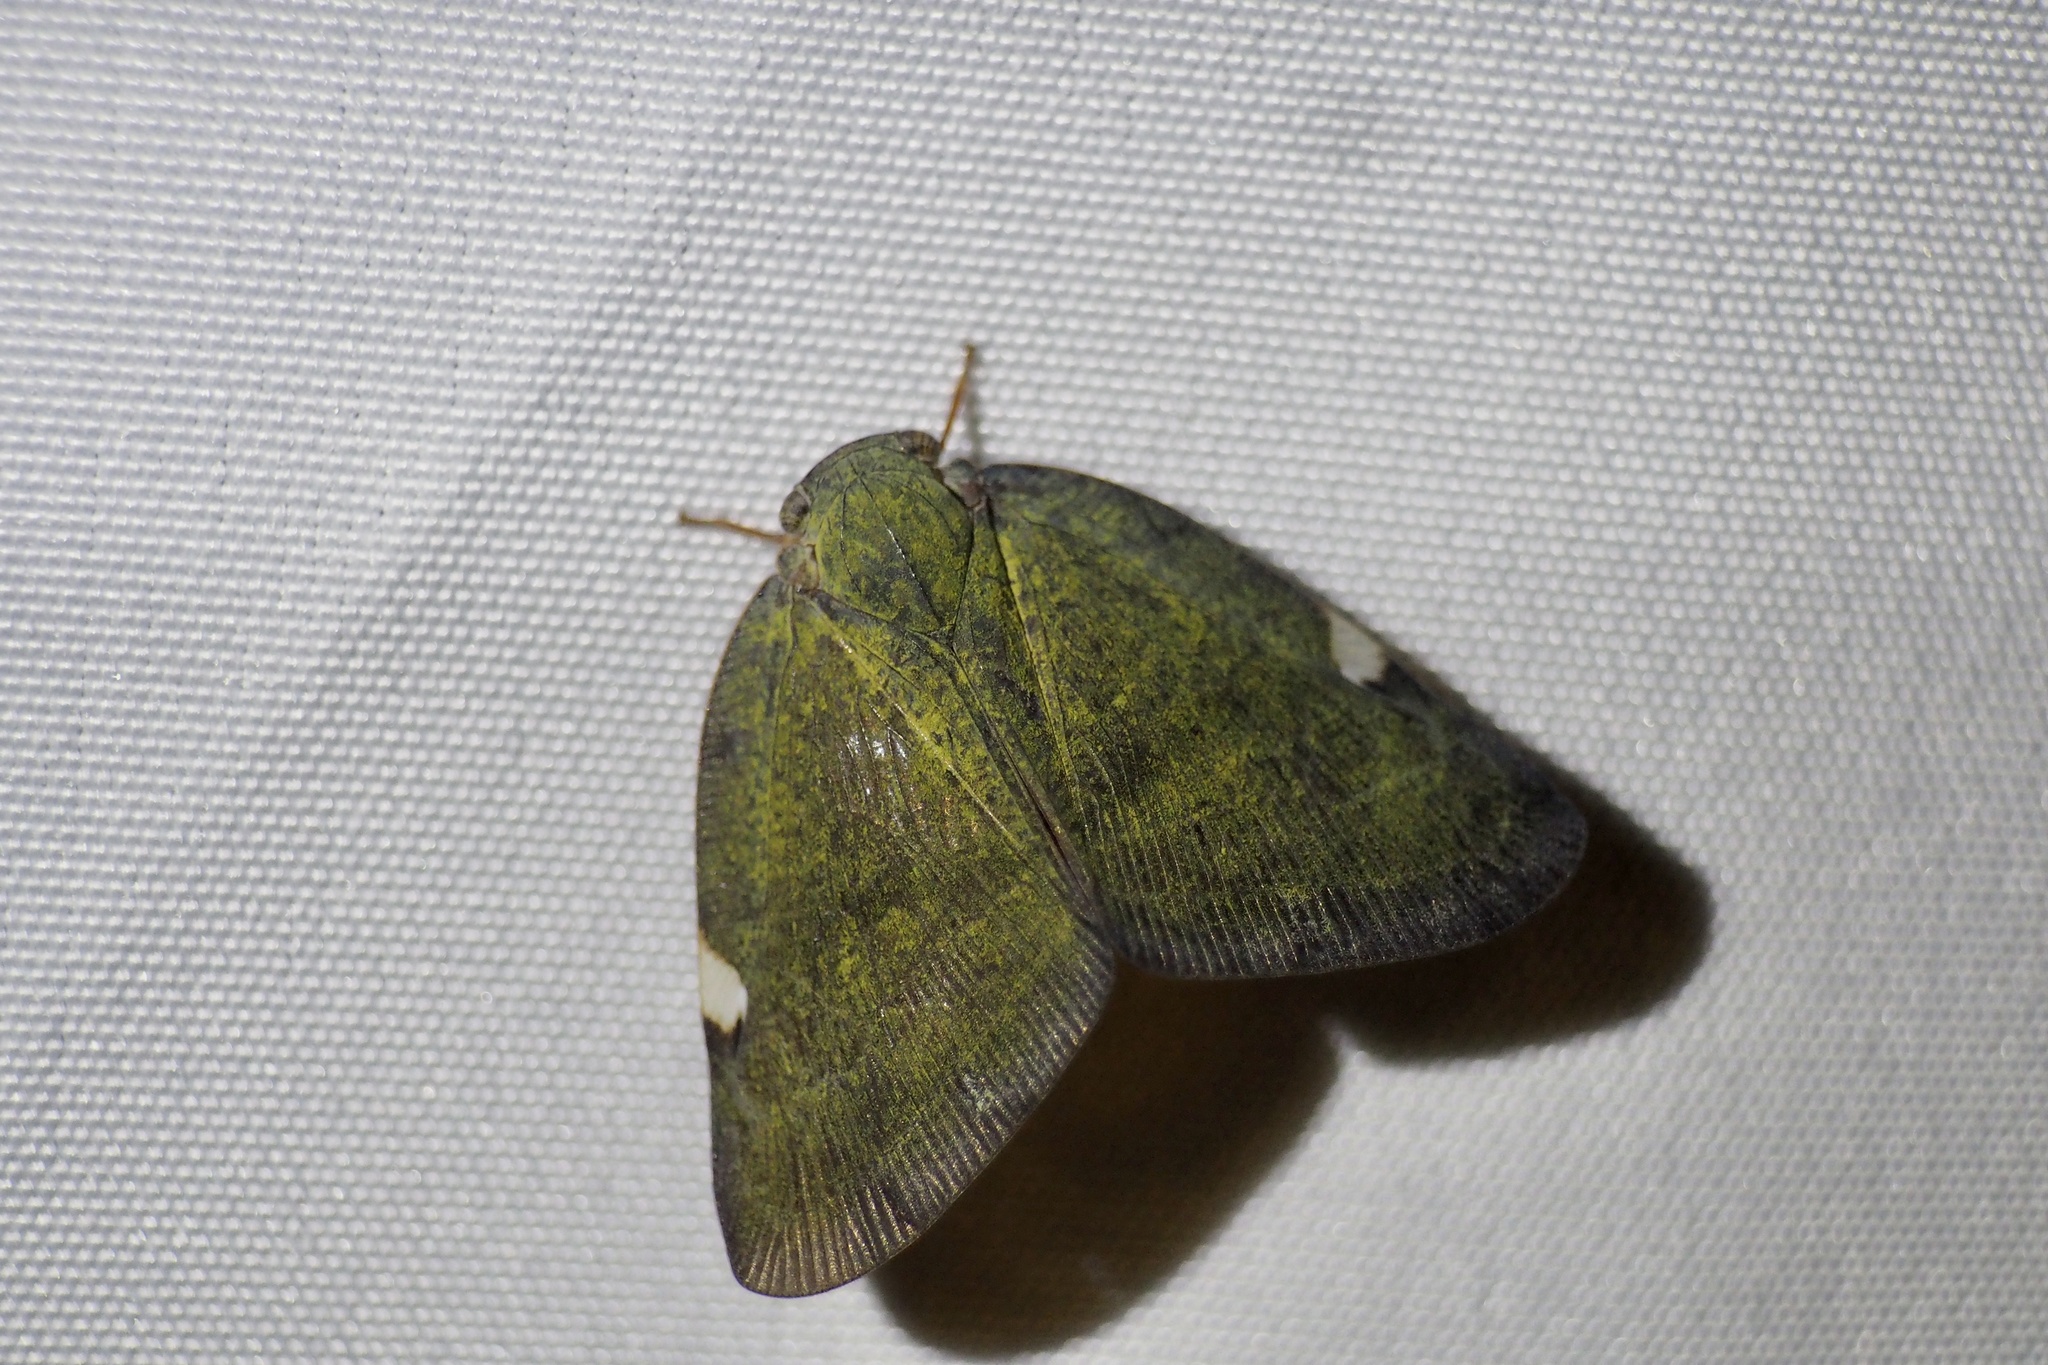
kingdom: Animalia
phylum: Arthropoda
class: Insecta
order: Hemiptera
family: Ricaniidae
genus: Pochazia
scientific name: Pochazia albomaculata
